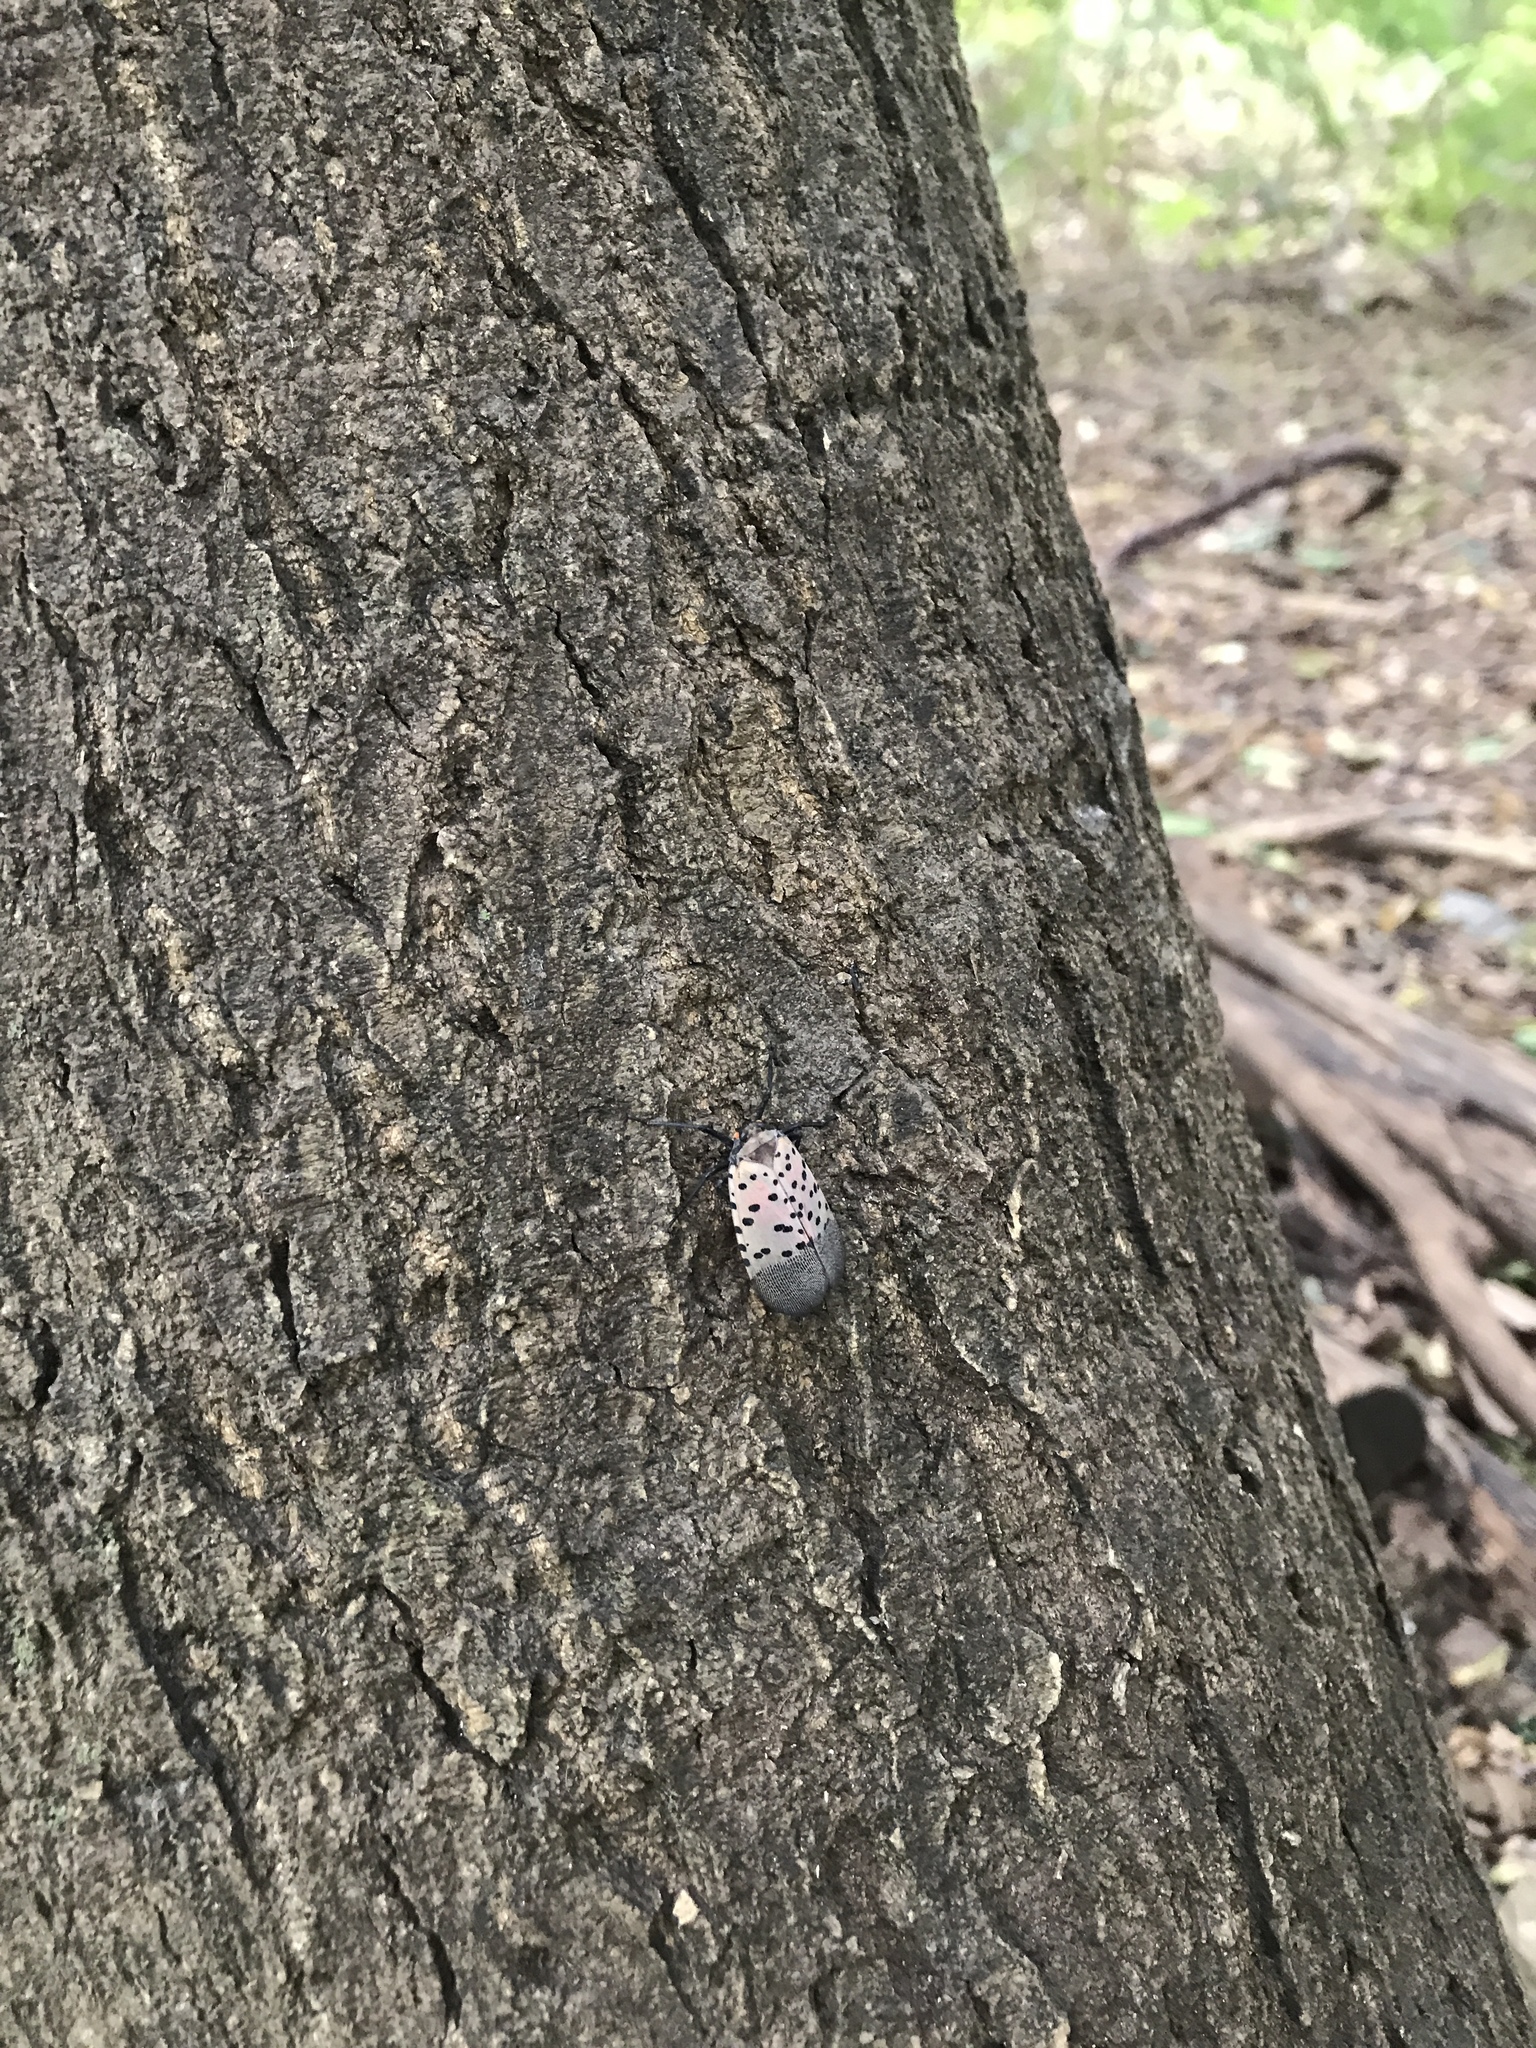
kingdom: Animalia
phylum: Arthropoda
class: Insecta
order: Hemiptera
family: Fulgoridae
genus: Lycorma
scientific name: Lycorma delicatula
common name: Spotted lanternfly
